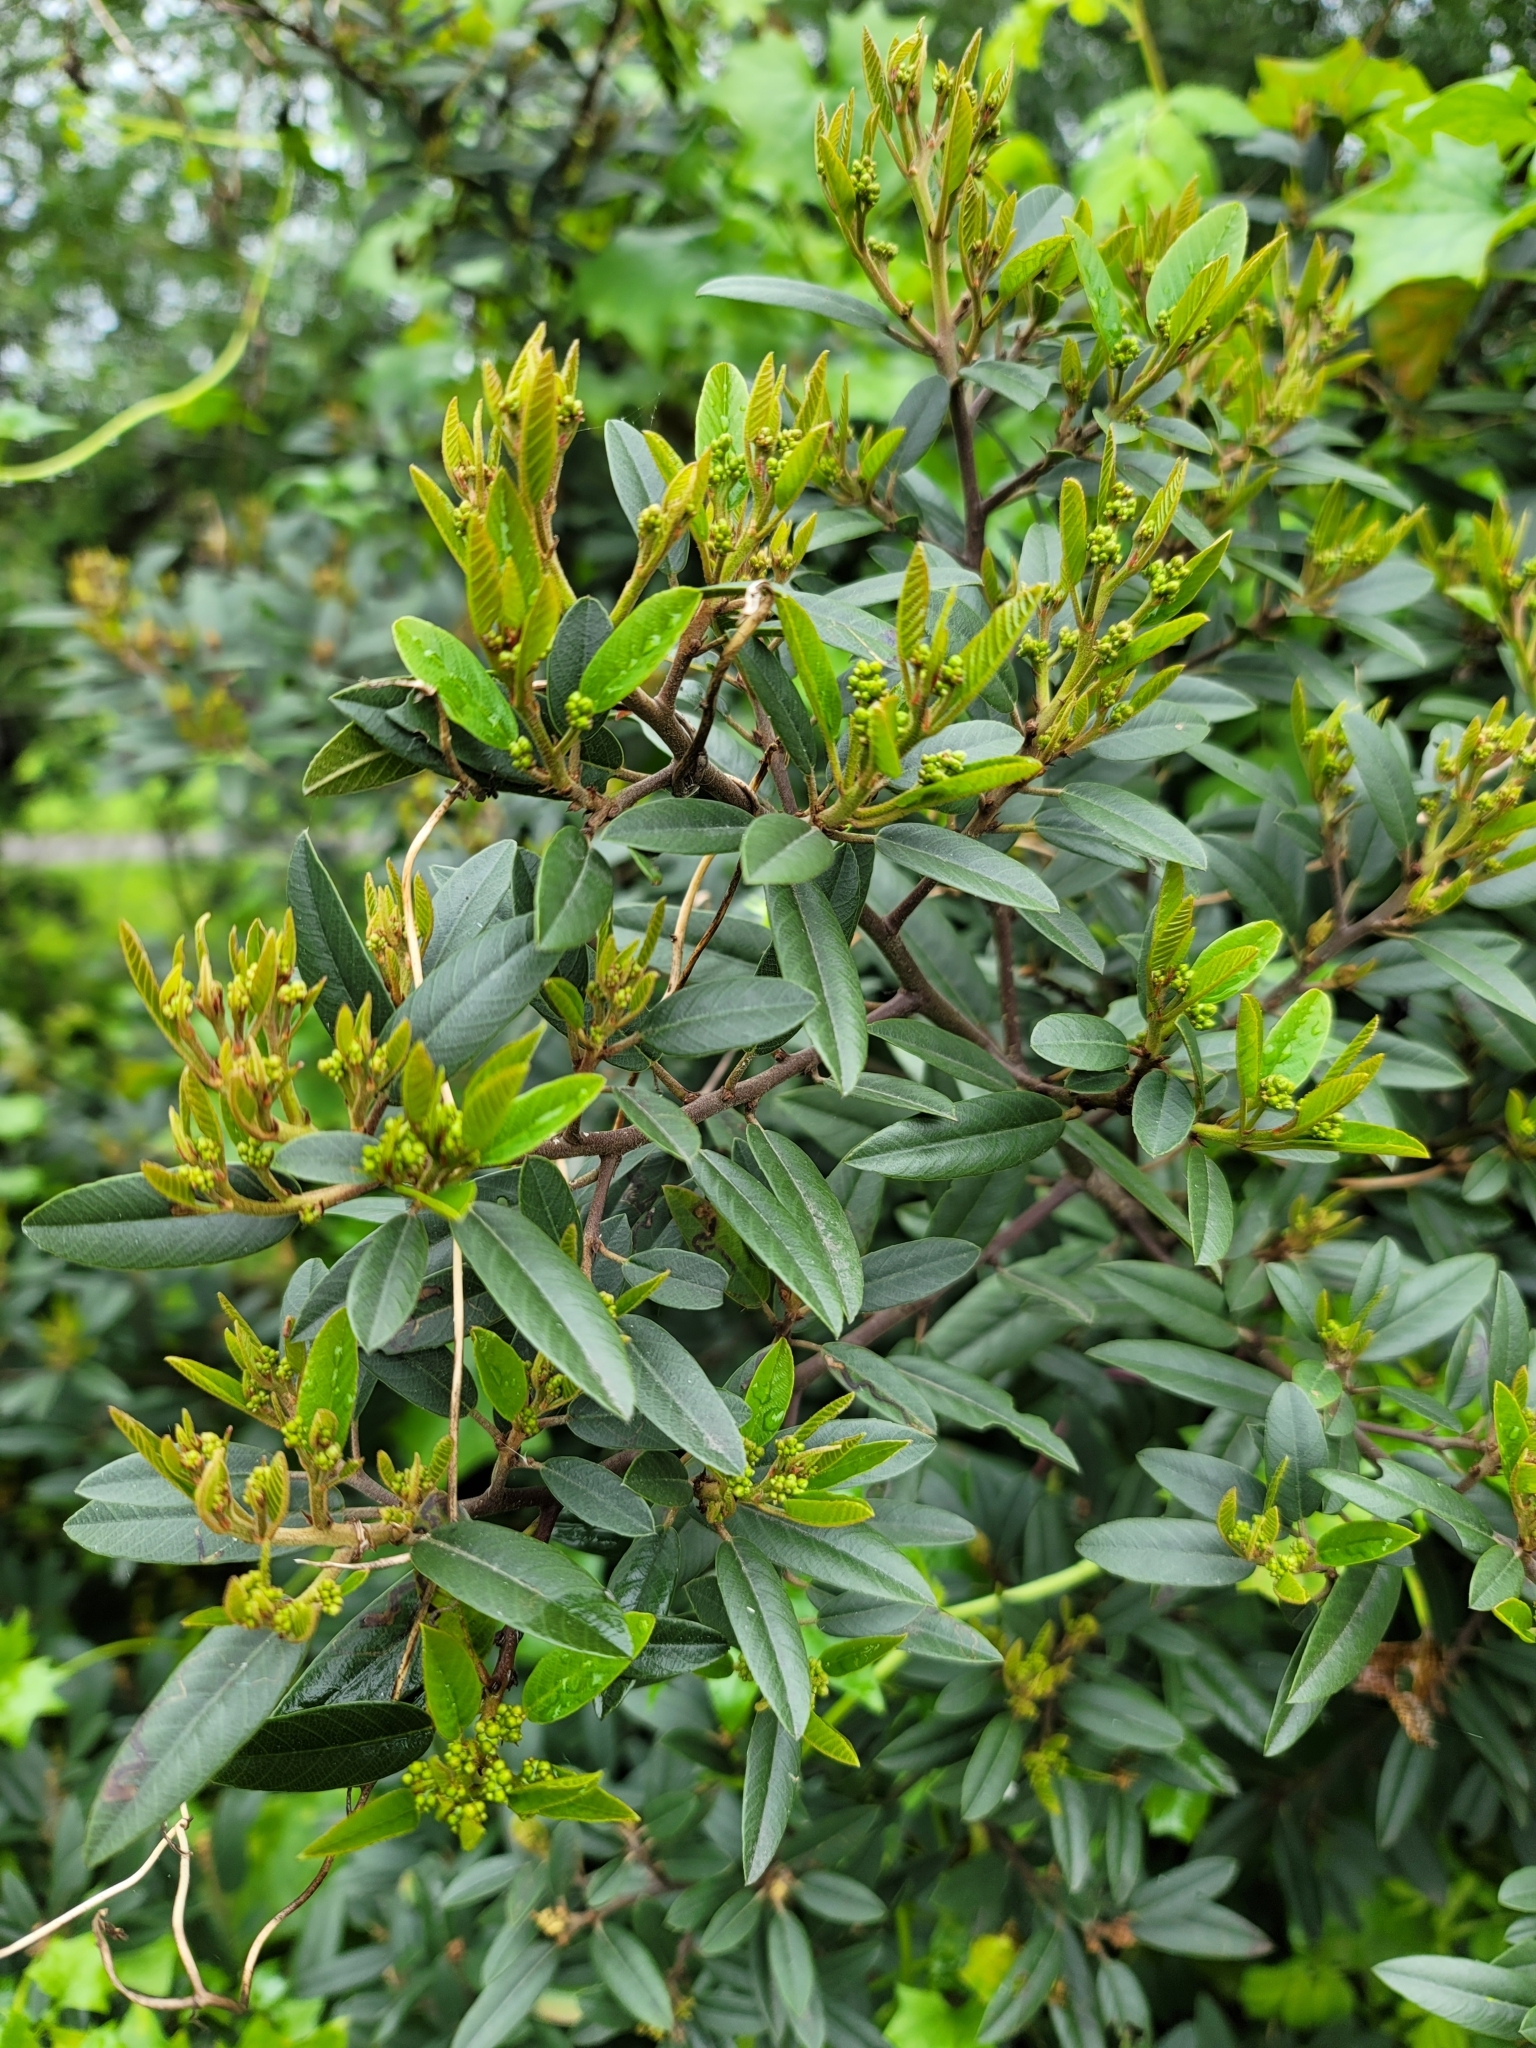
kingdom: Plantae
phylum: Tracheophyta
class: Magnoliopsida
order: Rosales
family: Rhamnaceae
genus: Frangula
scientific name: Frangula californica
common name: California buckthorn
